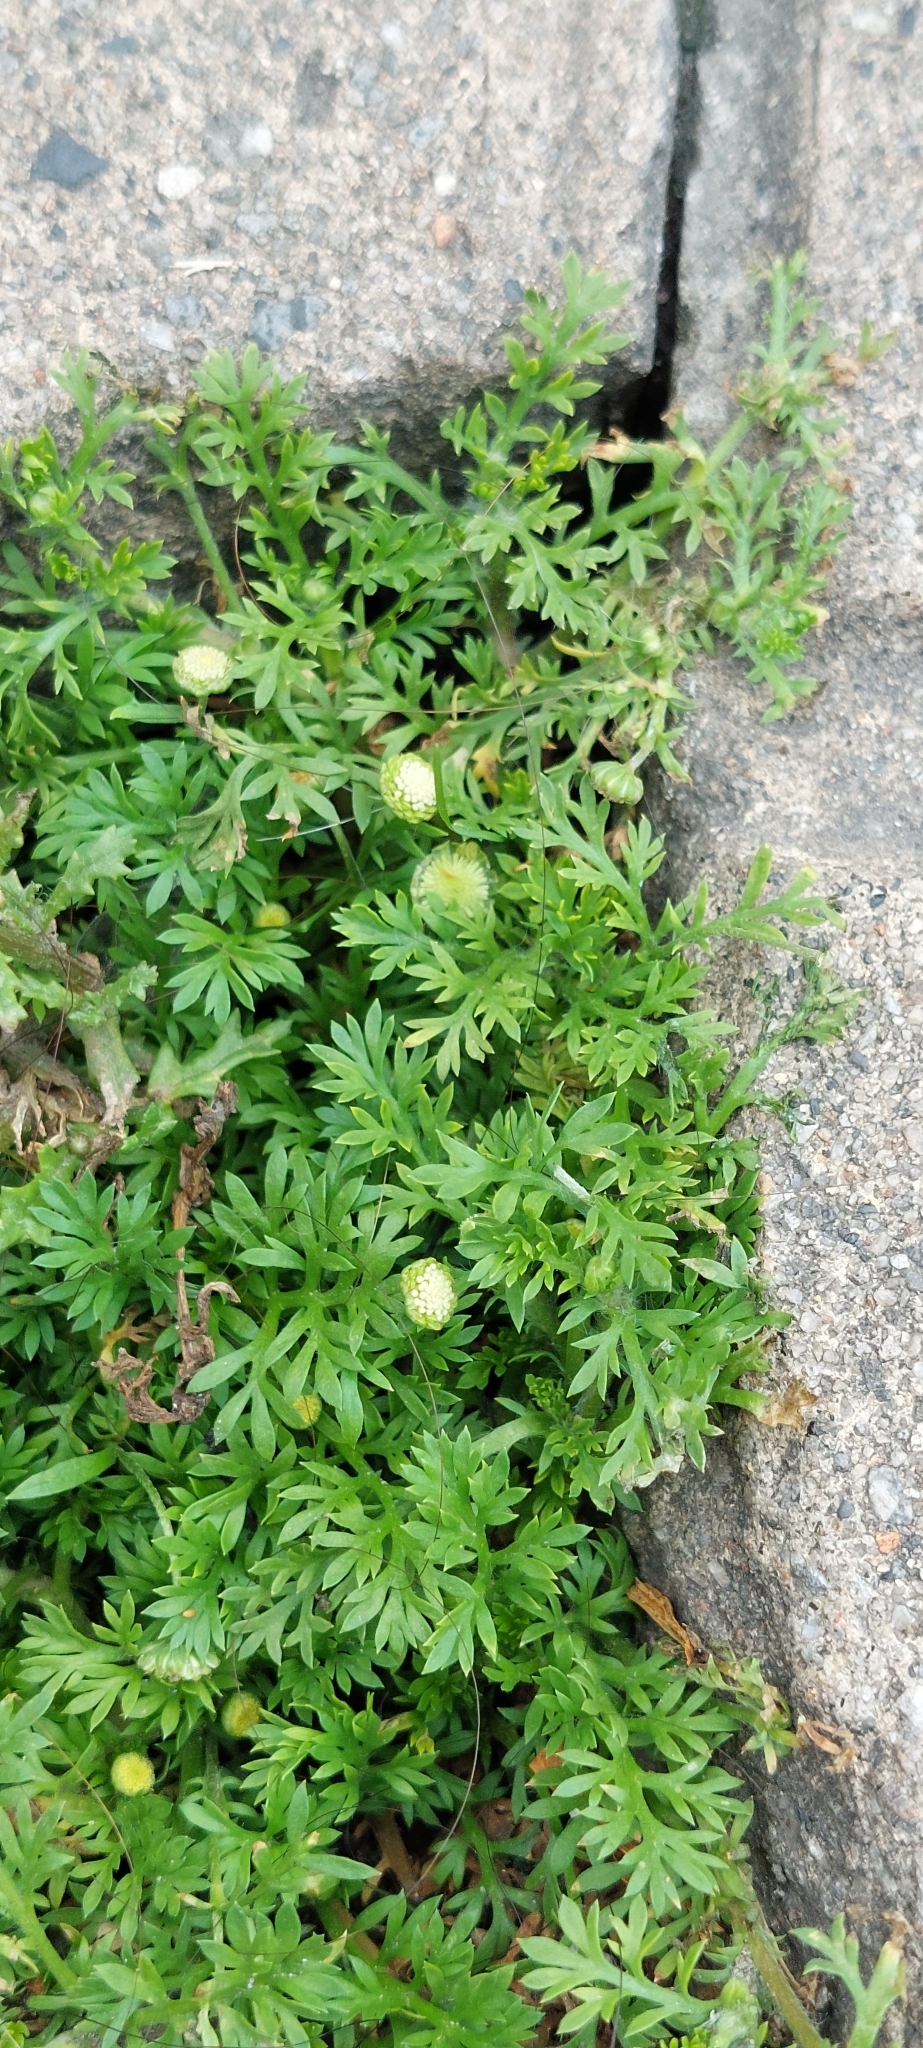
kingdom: Plantae
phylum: Tracheophyta
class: Magnoliopsida
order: Asterales
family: Asteraceae
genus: Cotula
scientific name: Cotula australis
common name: Australian waterbuttons
